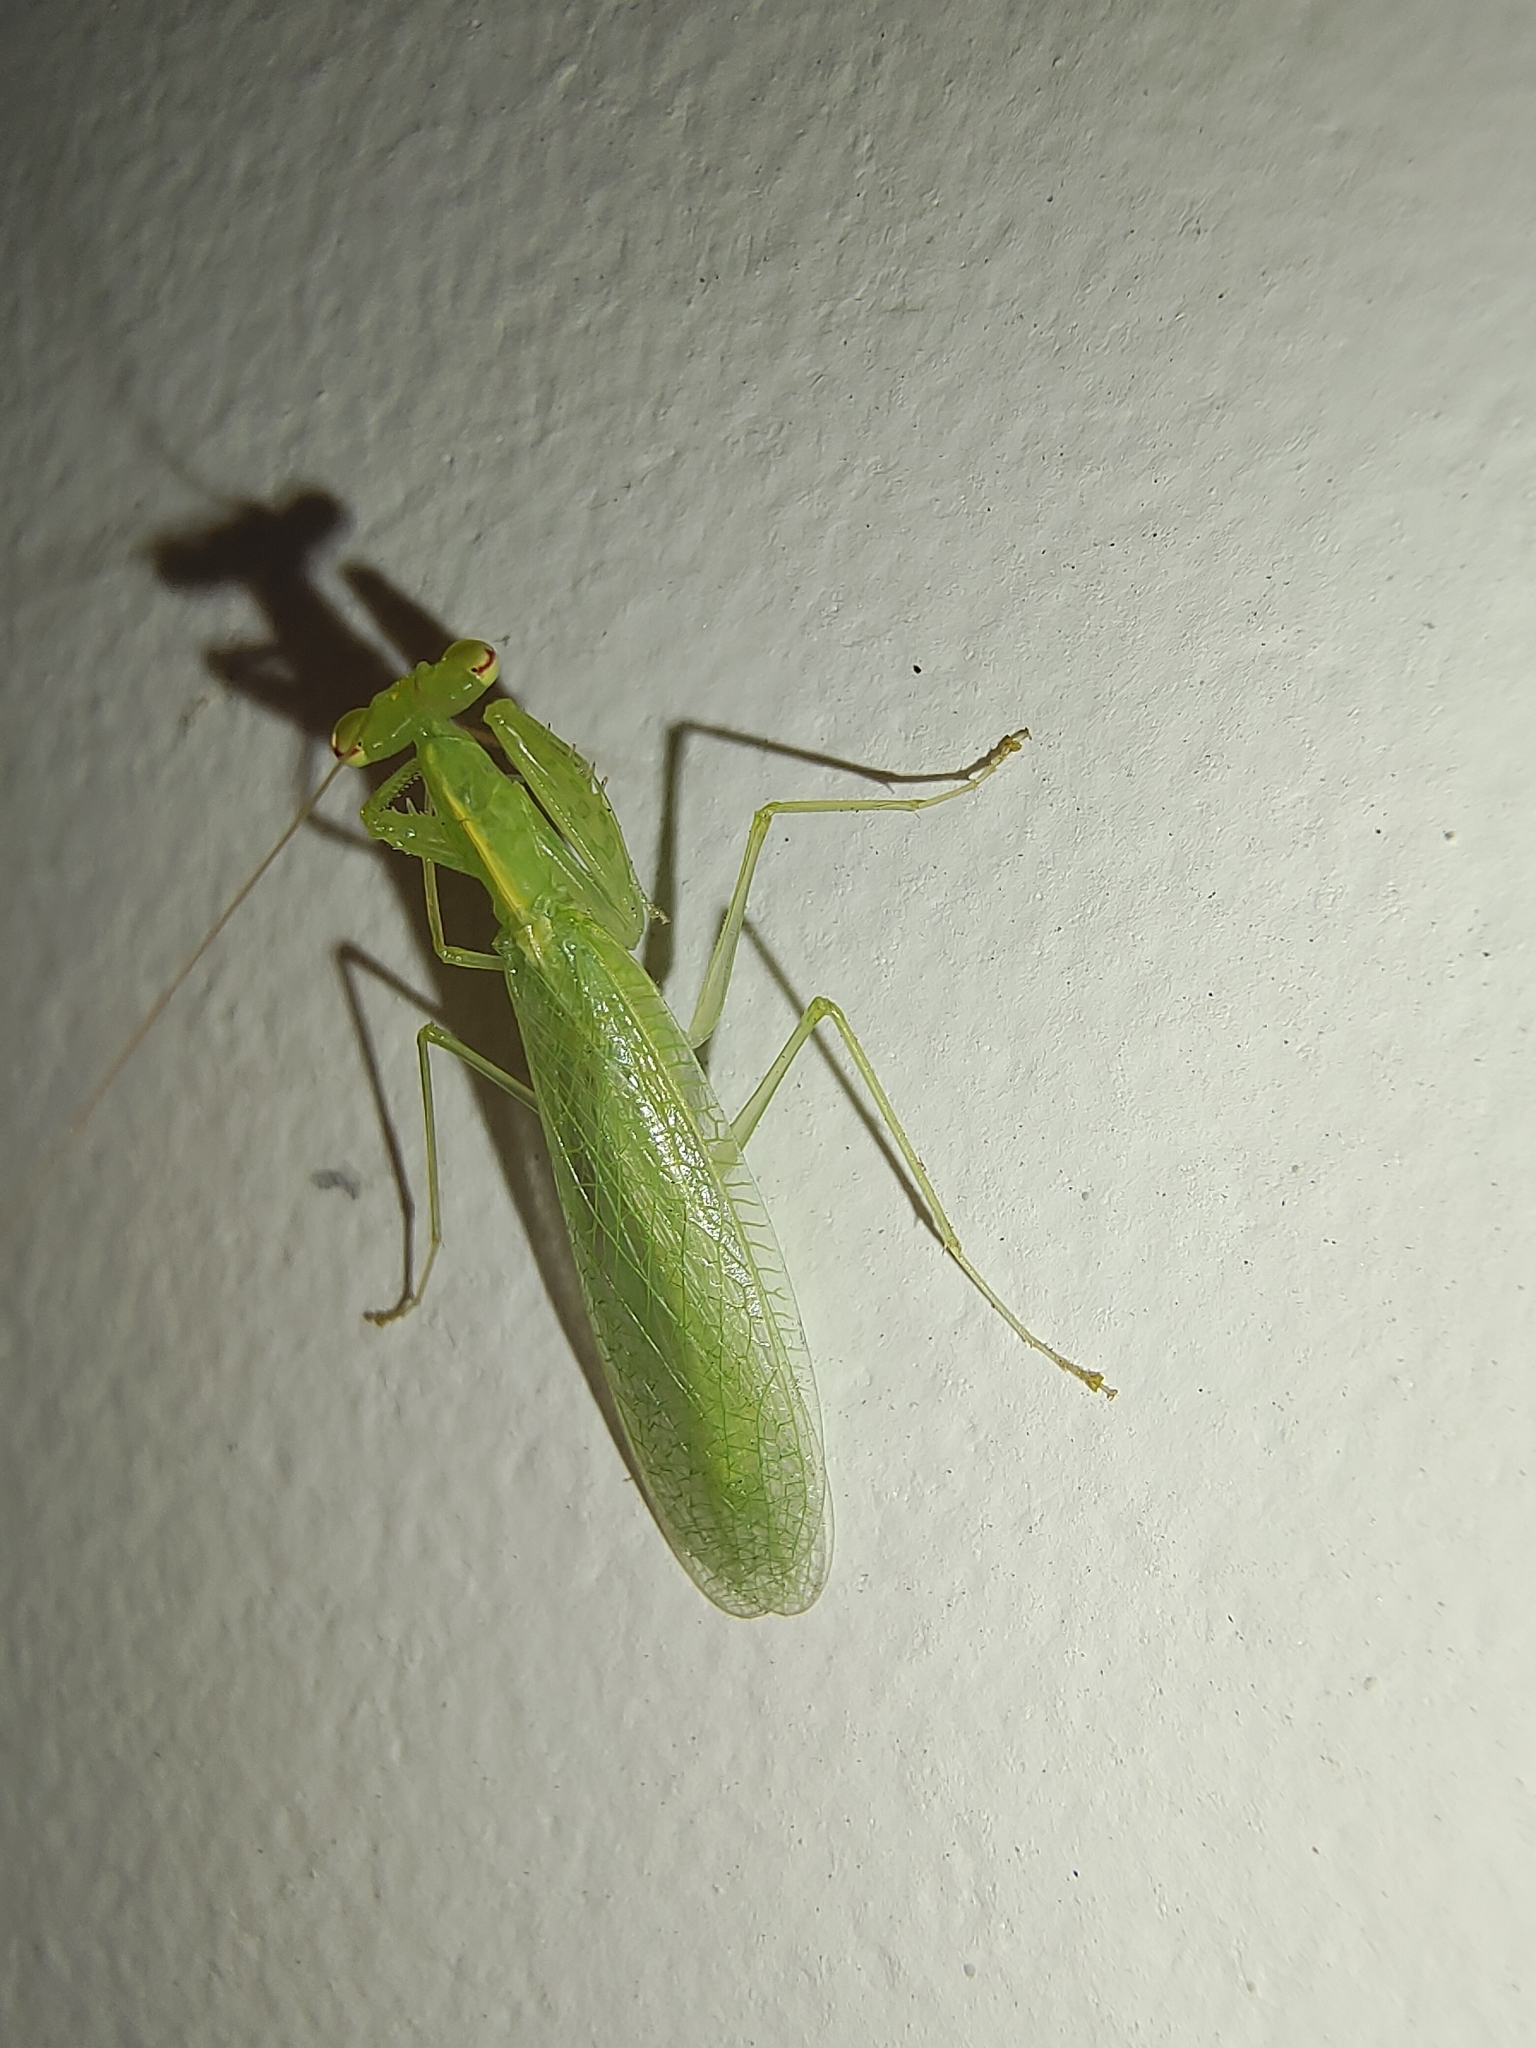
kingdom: Animalia
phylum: Arthropoda
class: Insecta
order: Mantodea
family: Nanomantidae
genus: Tropidomantis
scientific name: Tropidomantis tenera
